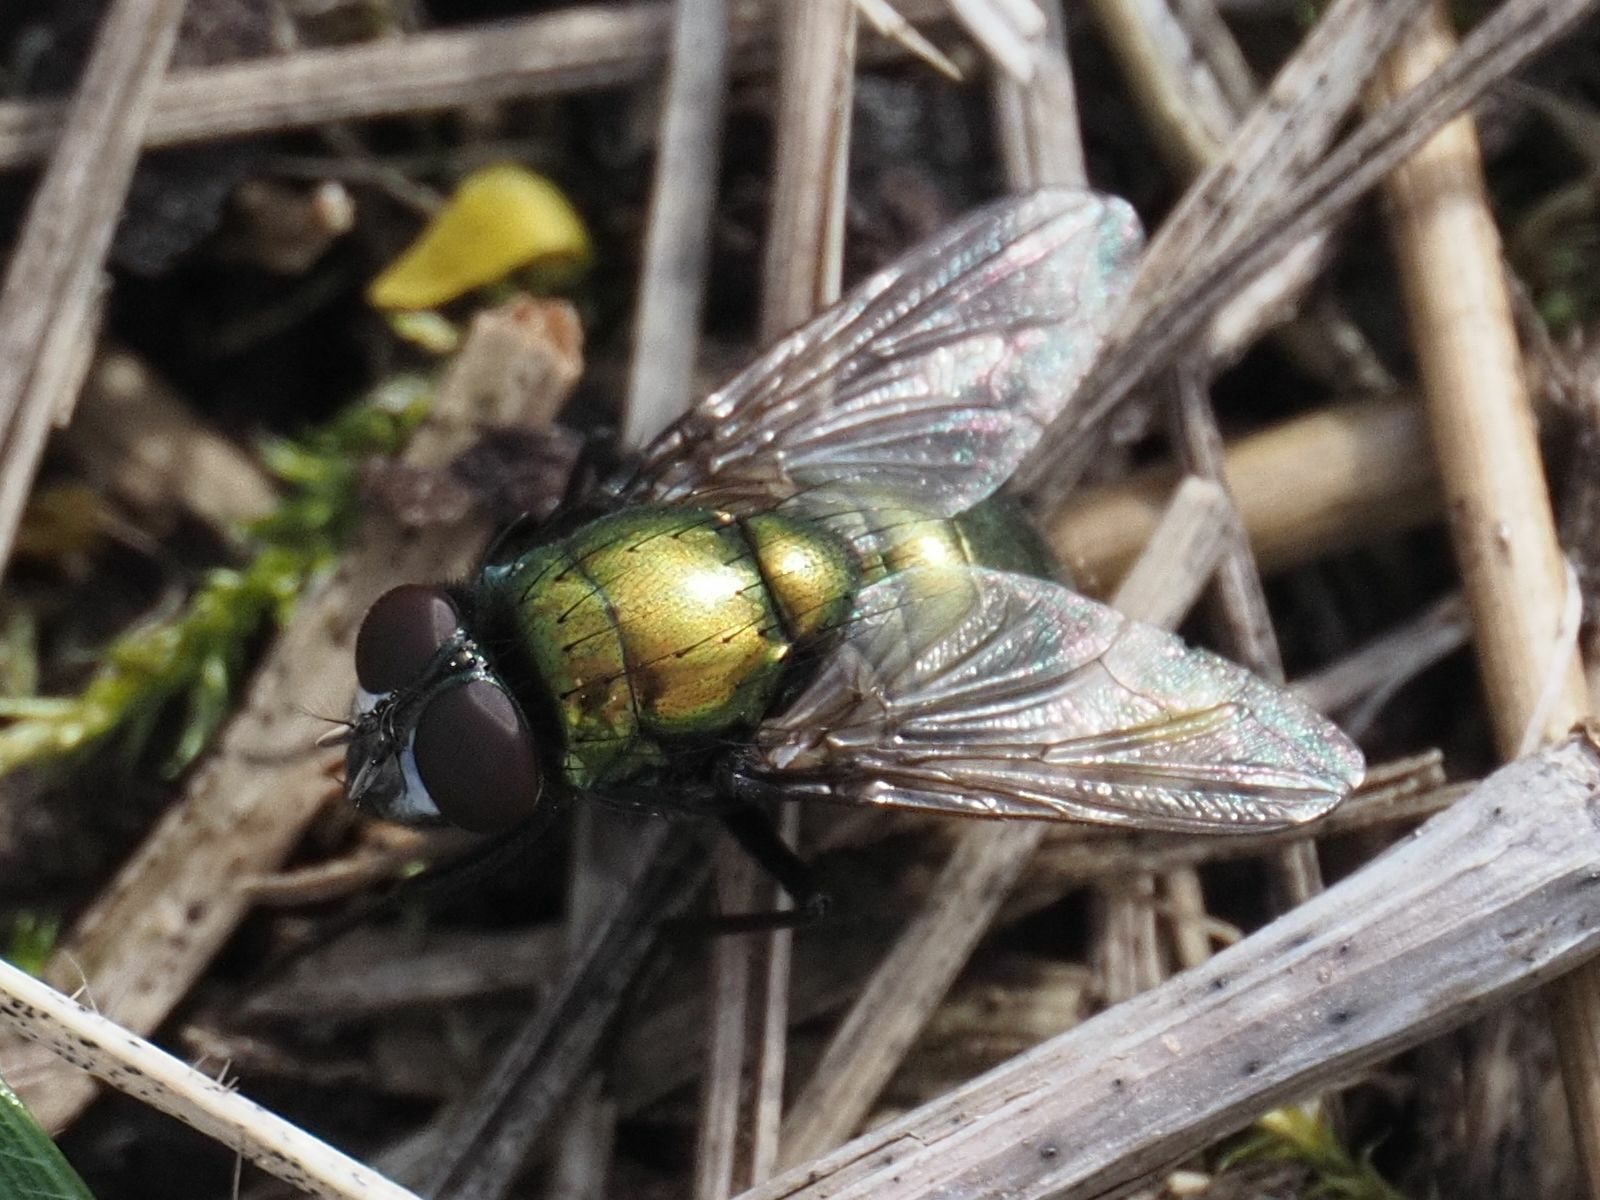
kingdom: Animalia
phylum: Arthropoda
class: Insecta
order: Diptera
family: Muscidae
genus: Neomyia
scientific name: Neomyia cornicina
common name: House fly
